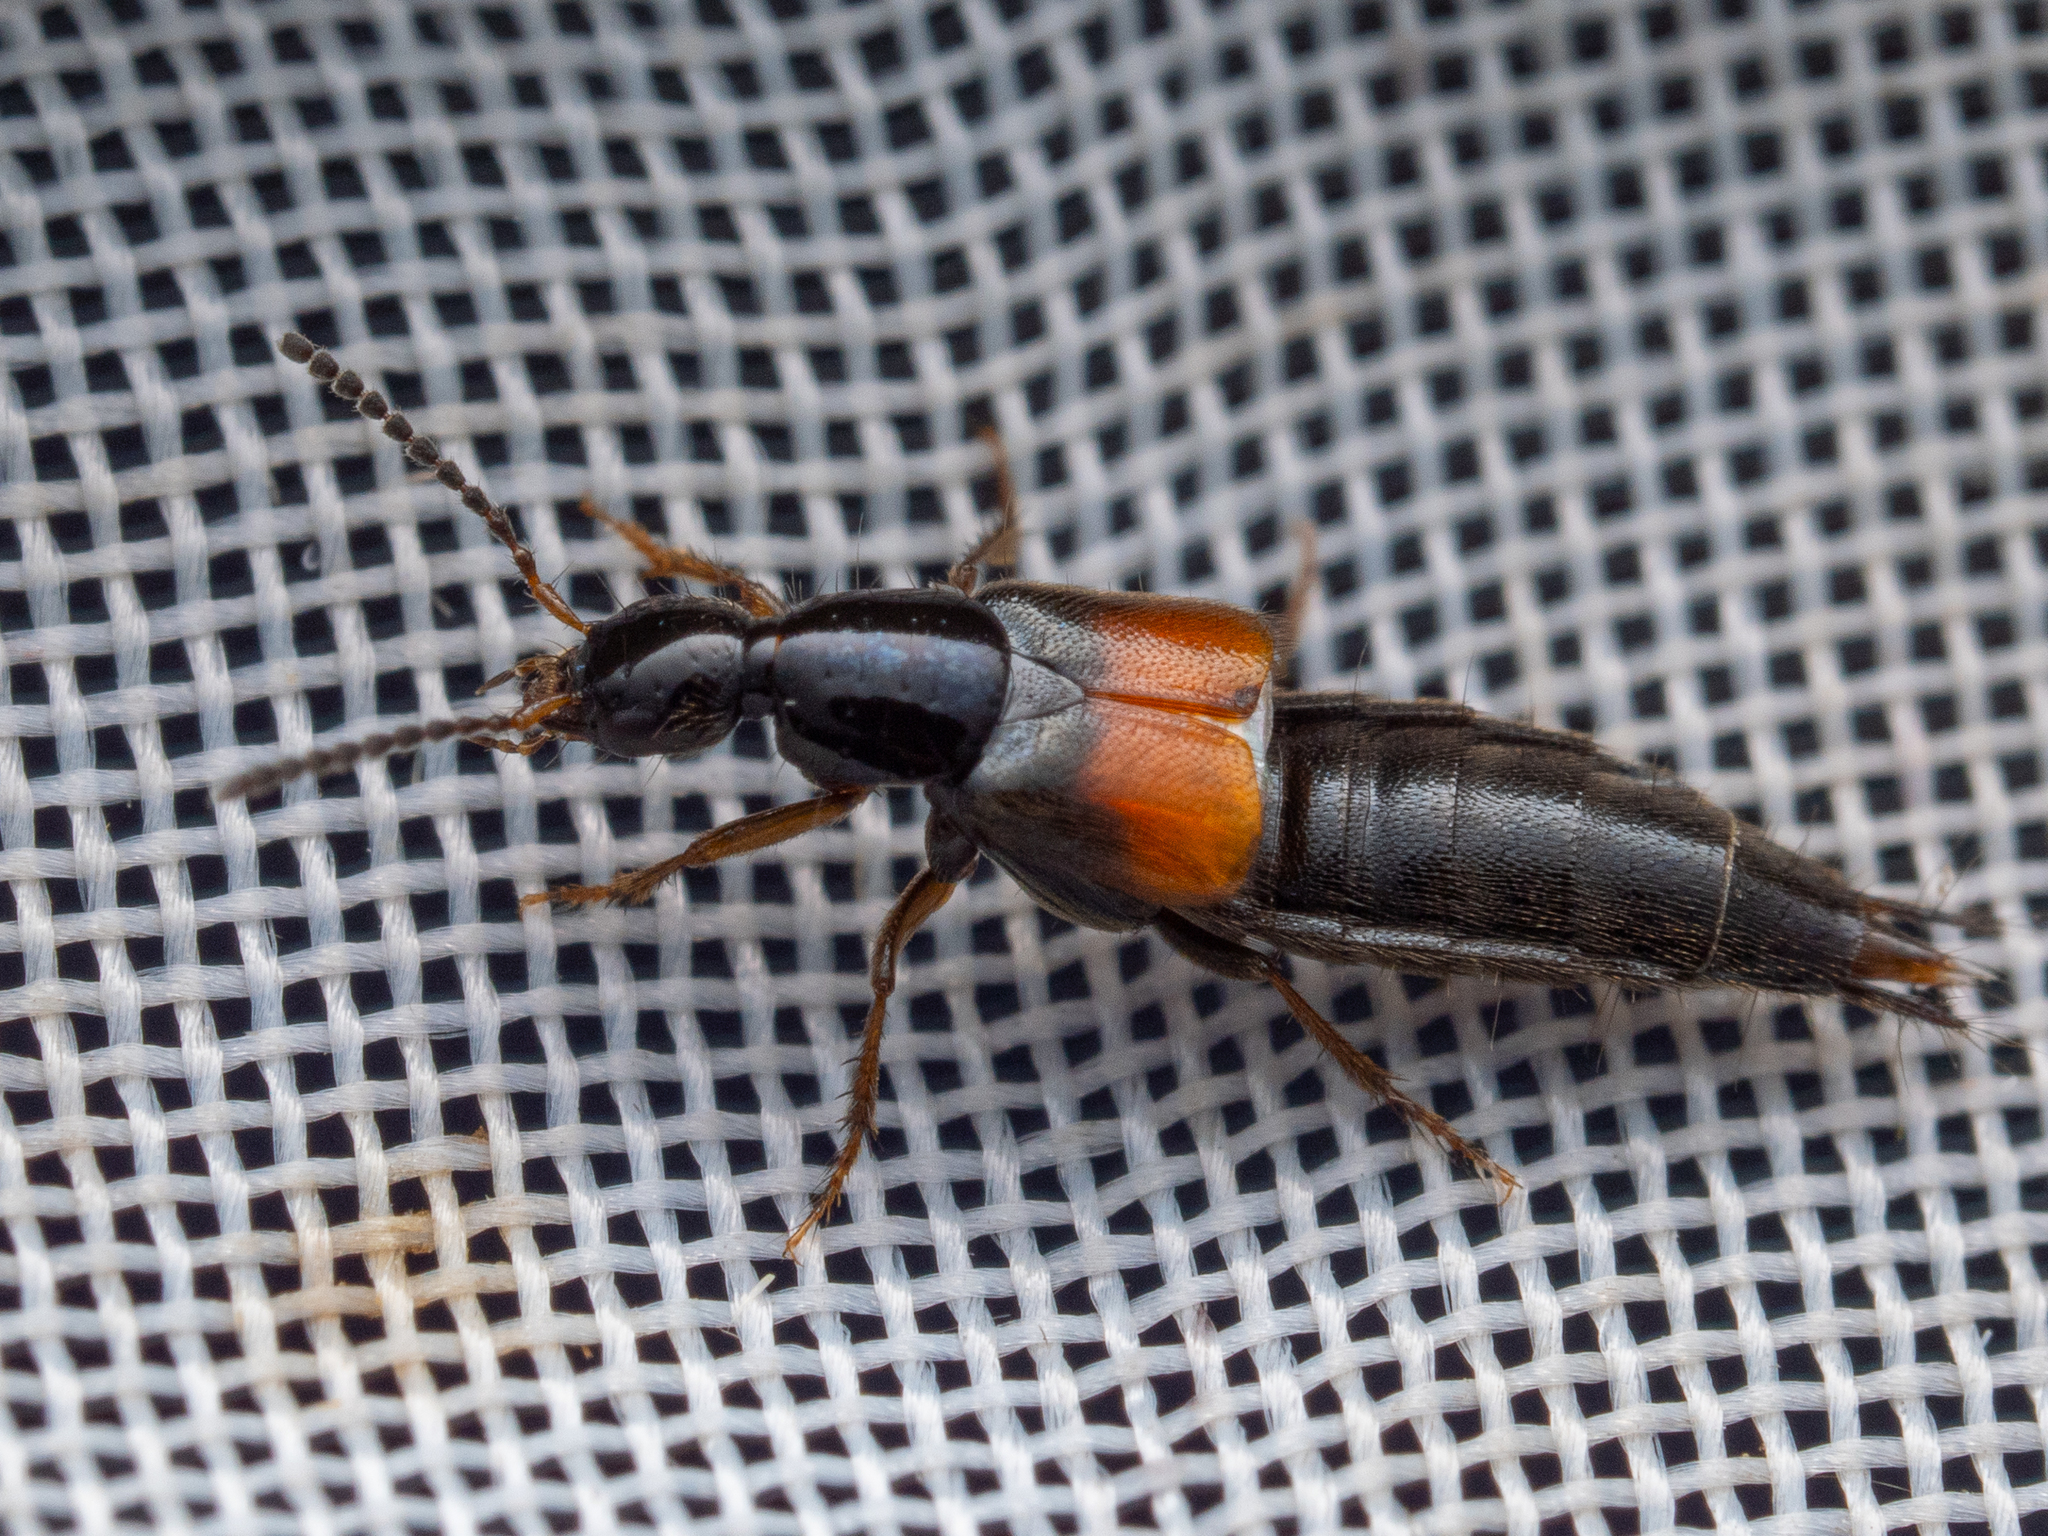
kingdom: Animalia
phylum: Arthropoda
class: Insecta
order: Coleoptera
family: Staphylinidae
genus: Philonthus
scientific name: Philonthus quisquiliarius
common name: Staph beetle
